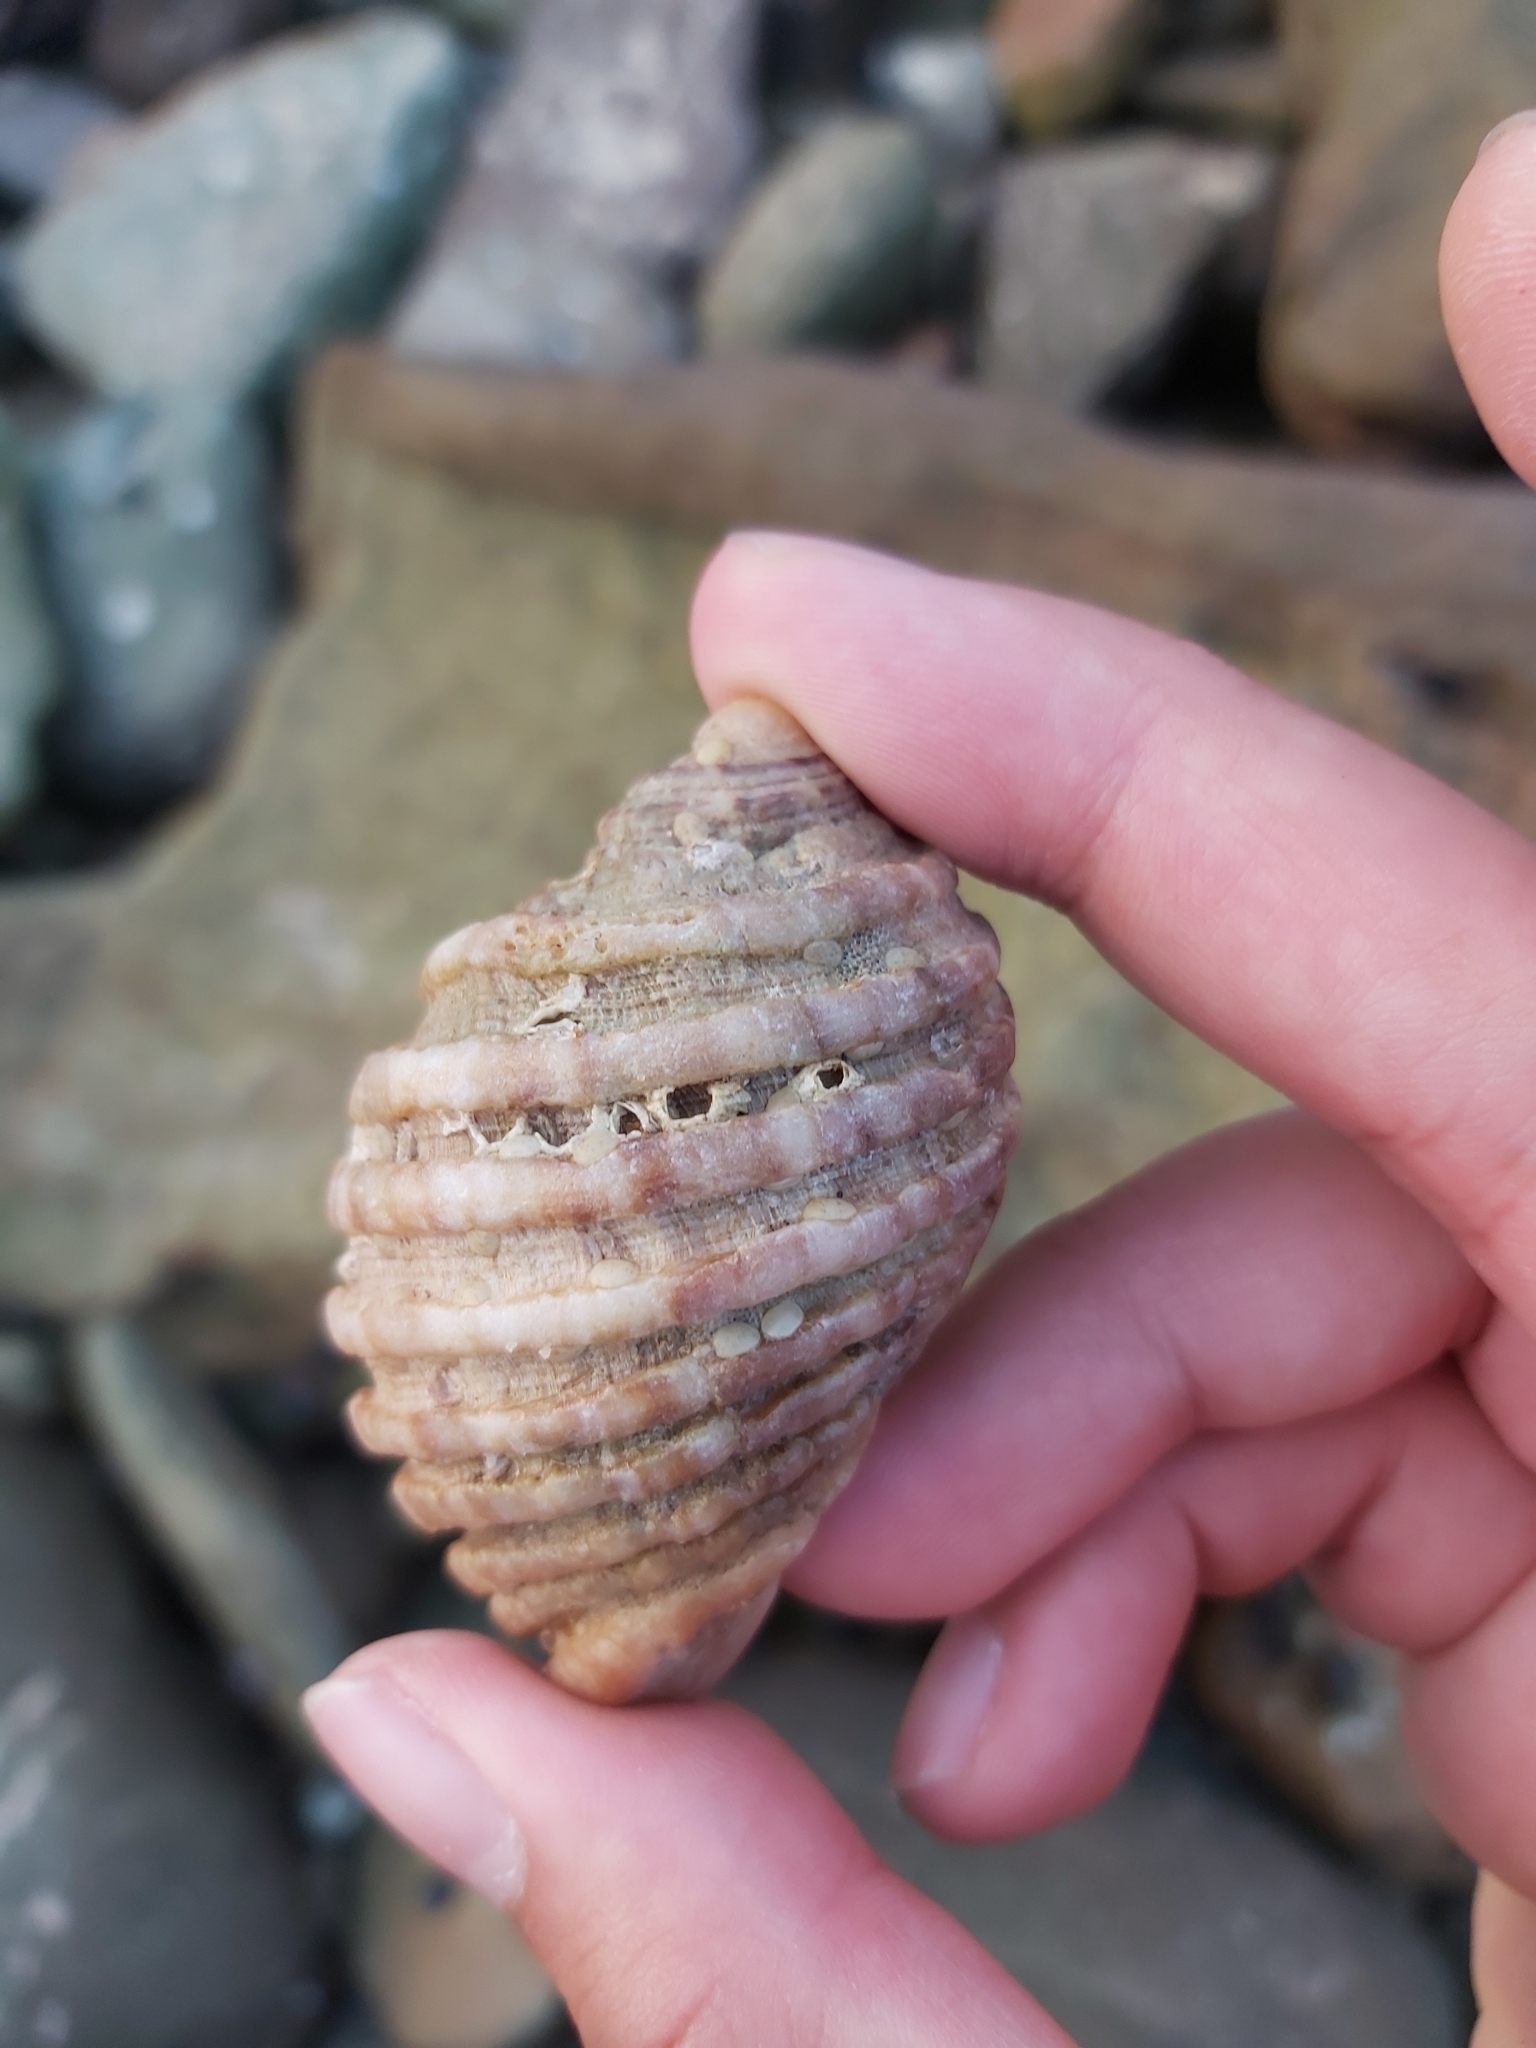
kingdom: Animalia
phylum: Mollusca
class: Gastropoda
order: Neogastropoda
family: Muricidae
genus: Dicathais
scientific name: Dicathais orbita
